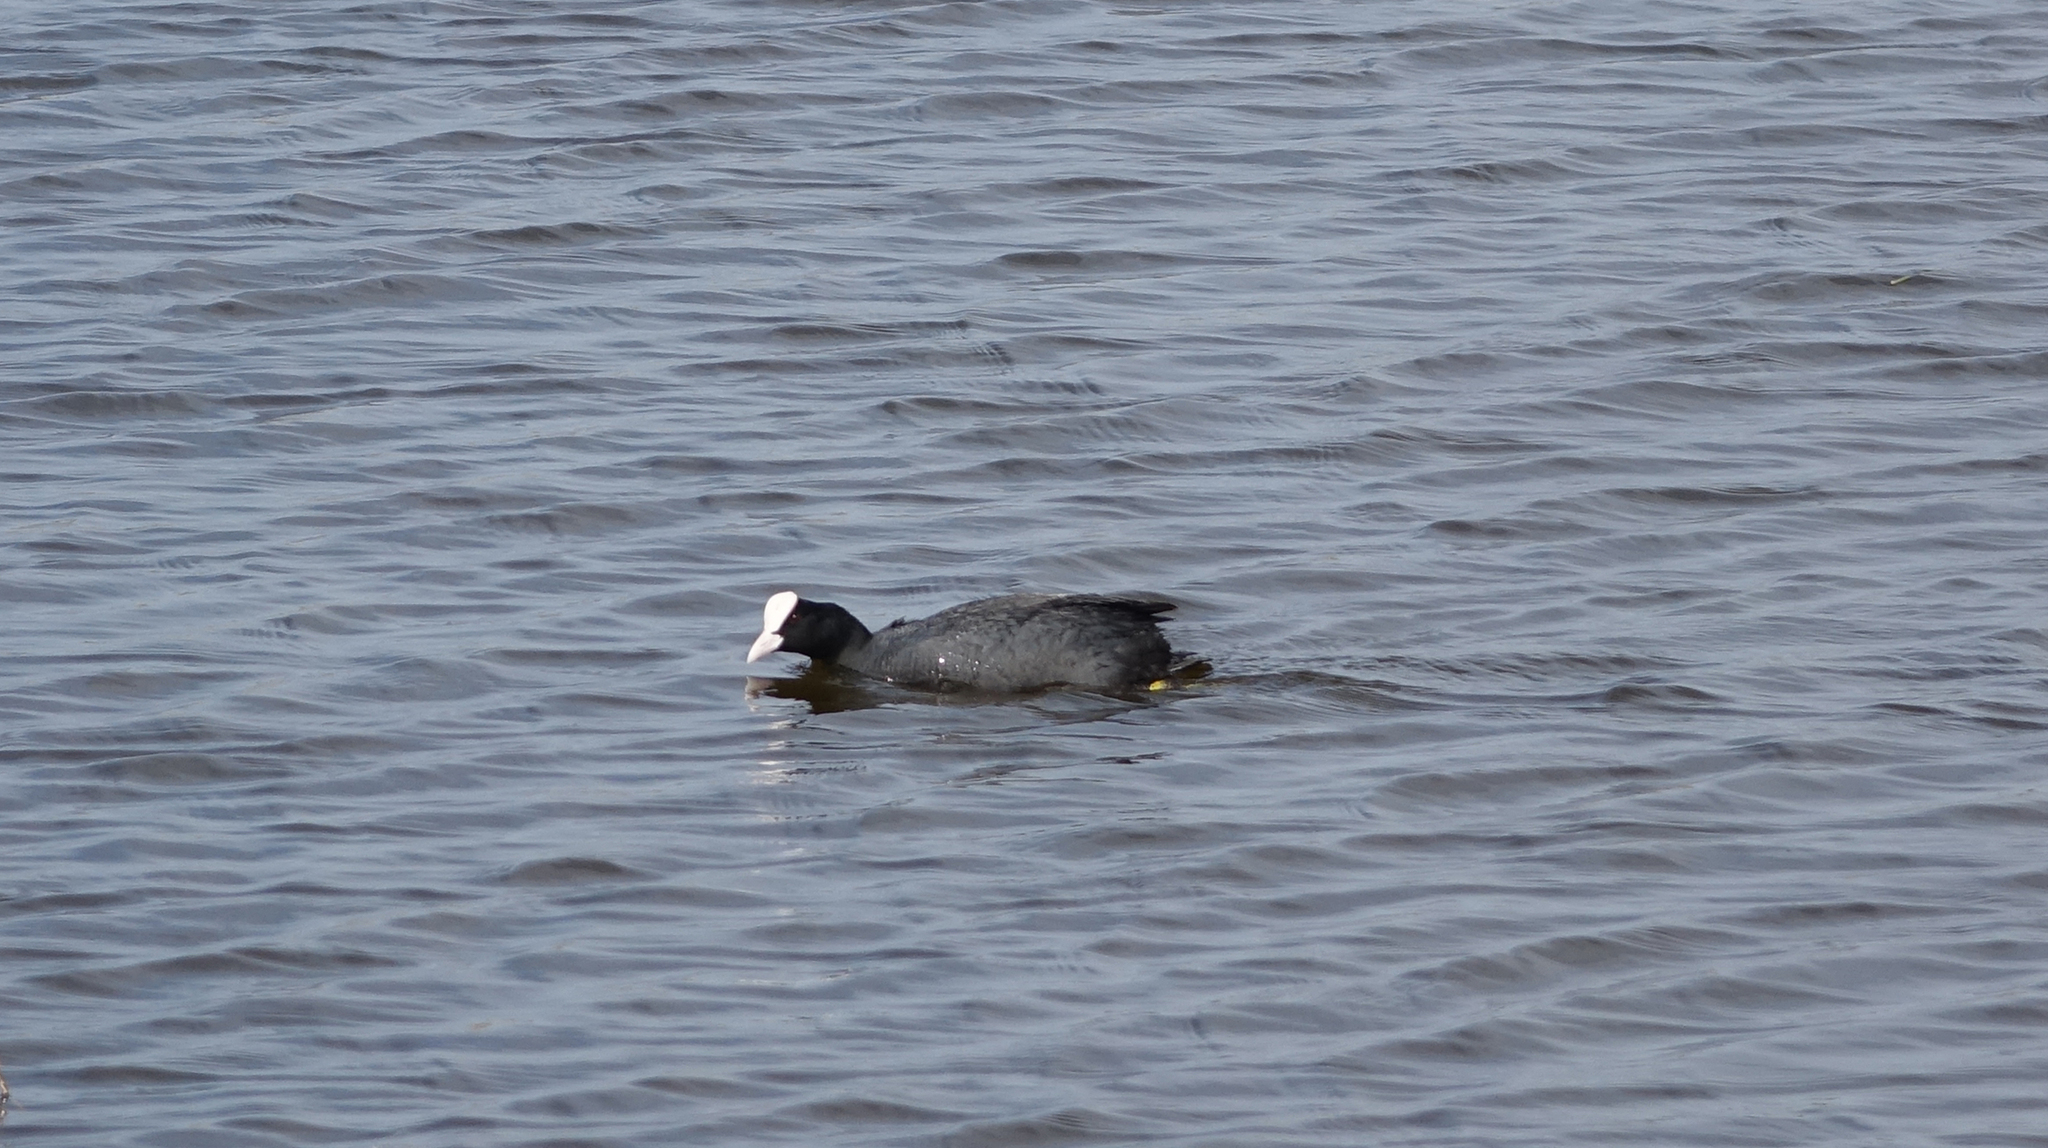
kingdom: Animalia
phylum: Chordata
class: Aves
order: Gruiformes
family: Rallidae
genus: Fulica
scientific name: Fulica atra
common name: Eurasian coot
